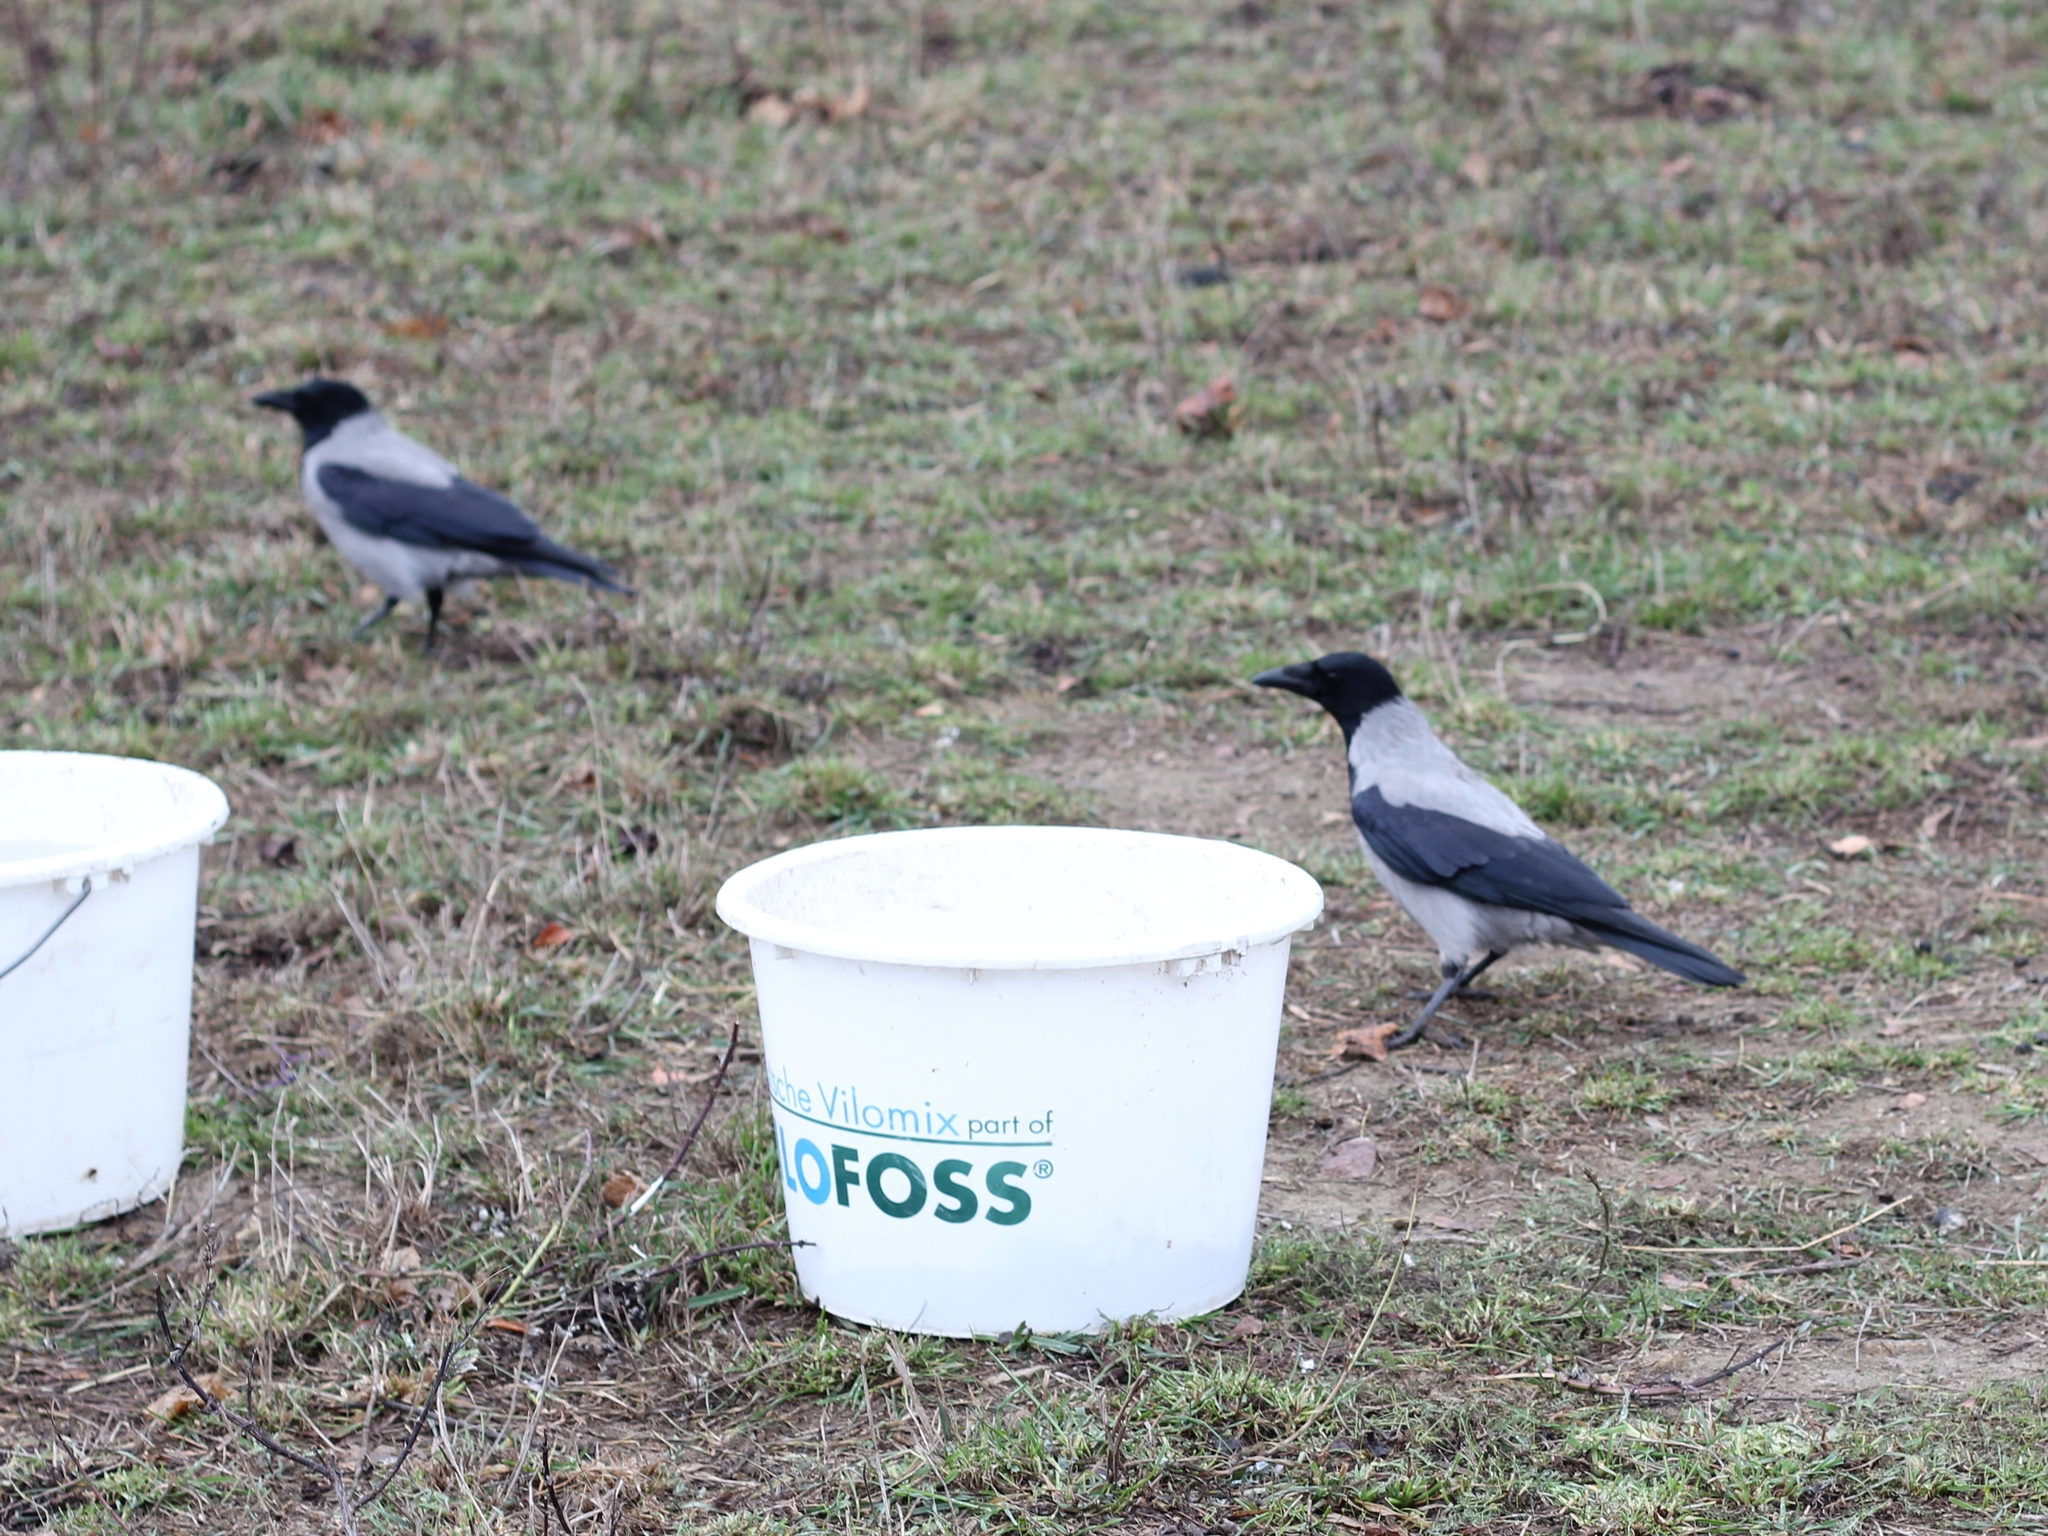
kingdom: Animalia
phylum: Chordata
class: Aves
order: Passeriformes
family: Corvidae
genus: Corvus
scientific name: Corvus cornix
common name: Hooded crow
